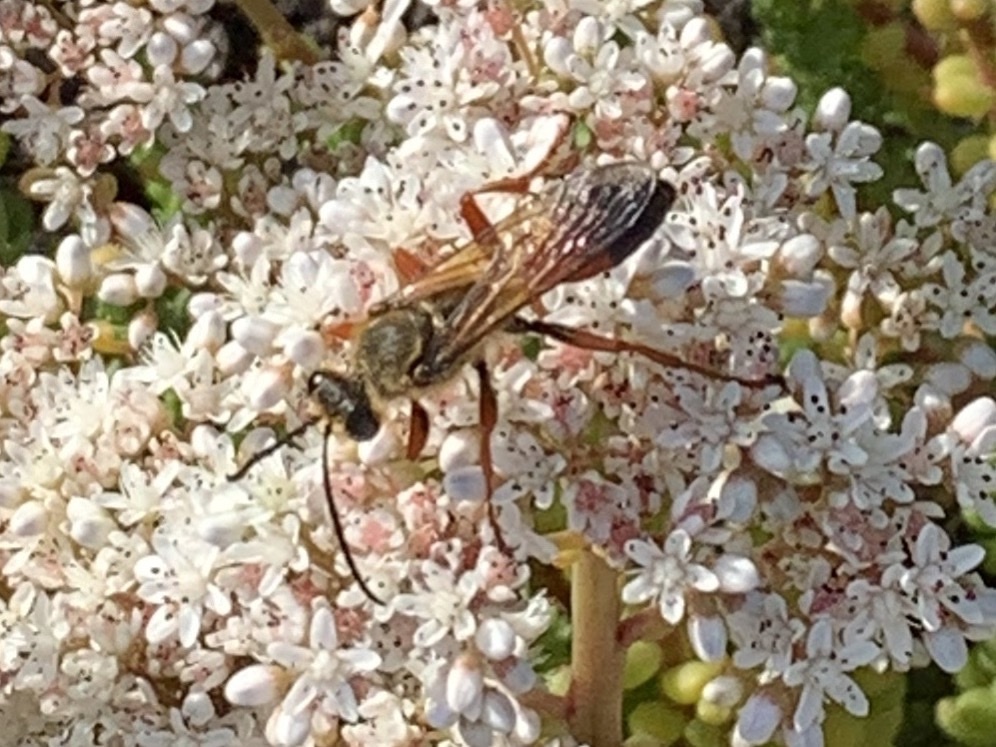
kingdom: Animalia
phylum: Arthropoda
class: Insecta
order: Hymenoptera
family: Sphecidae
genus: Sphex
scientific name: Sphex ichneumoneus
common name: Great golden digger wasp
